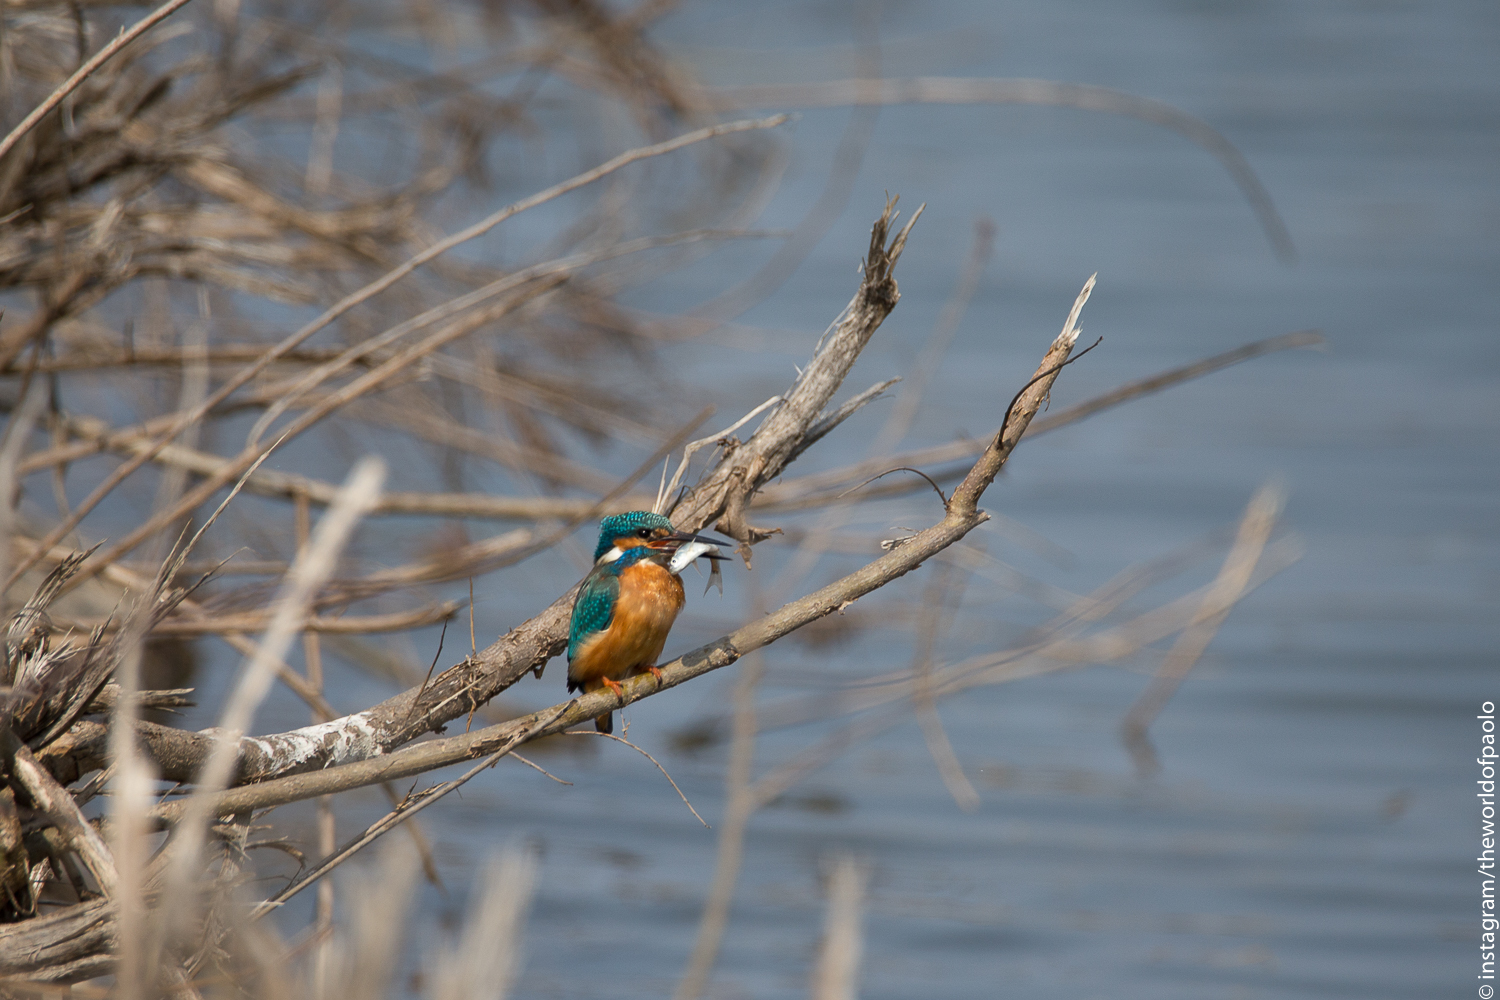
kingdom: Animalia
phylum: Chordata
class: Aves
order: Coraciiformes
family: Alcedinidae
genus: Alcedo
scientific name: Alcedo atthis
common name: Common kingfisher
